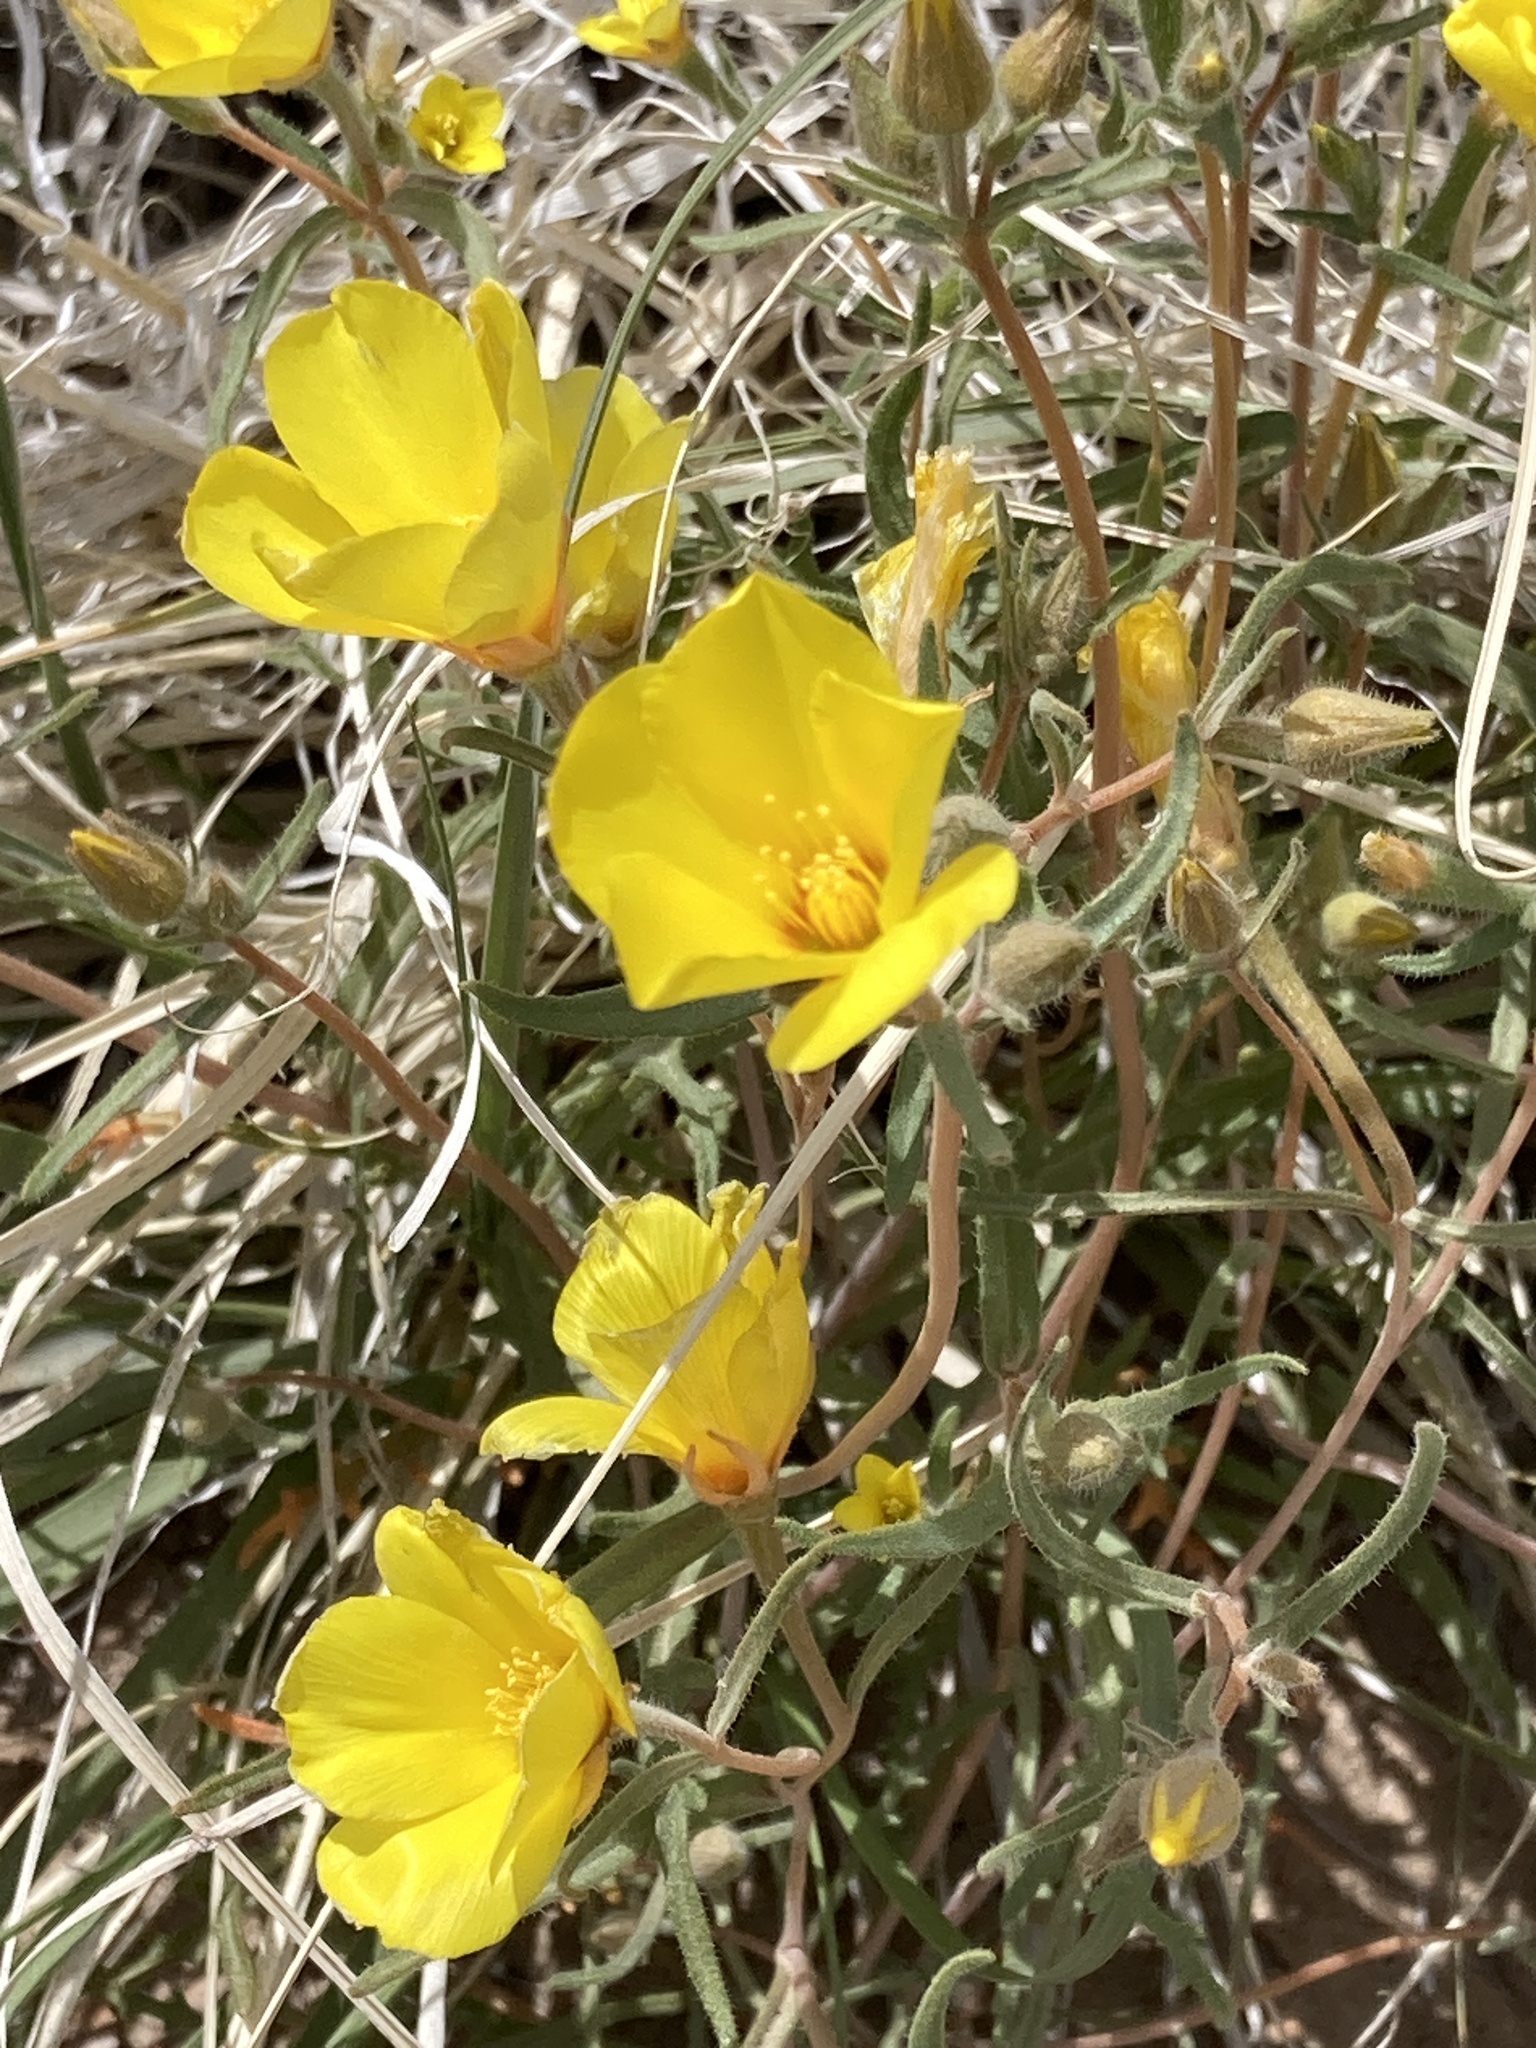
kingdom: Plantae
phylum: Tracheophyta
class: Magnoliopsida
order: Cornales
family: Loasaceae
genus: Mentzelia
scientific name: Mentzelia nitens
